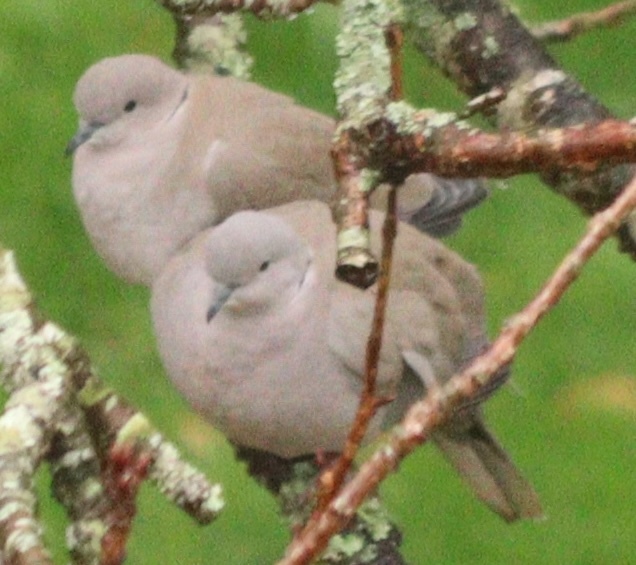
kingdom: Animalia
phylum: Chordata
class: Aves
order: Columbiformes
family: Columbidae
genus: Streptopelia
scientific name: Streptopelia decaocto
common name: Eurasian collared dove
